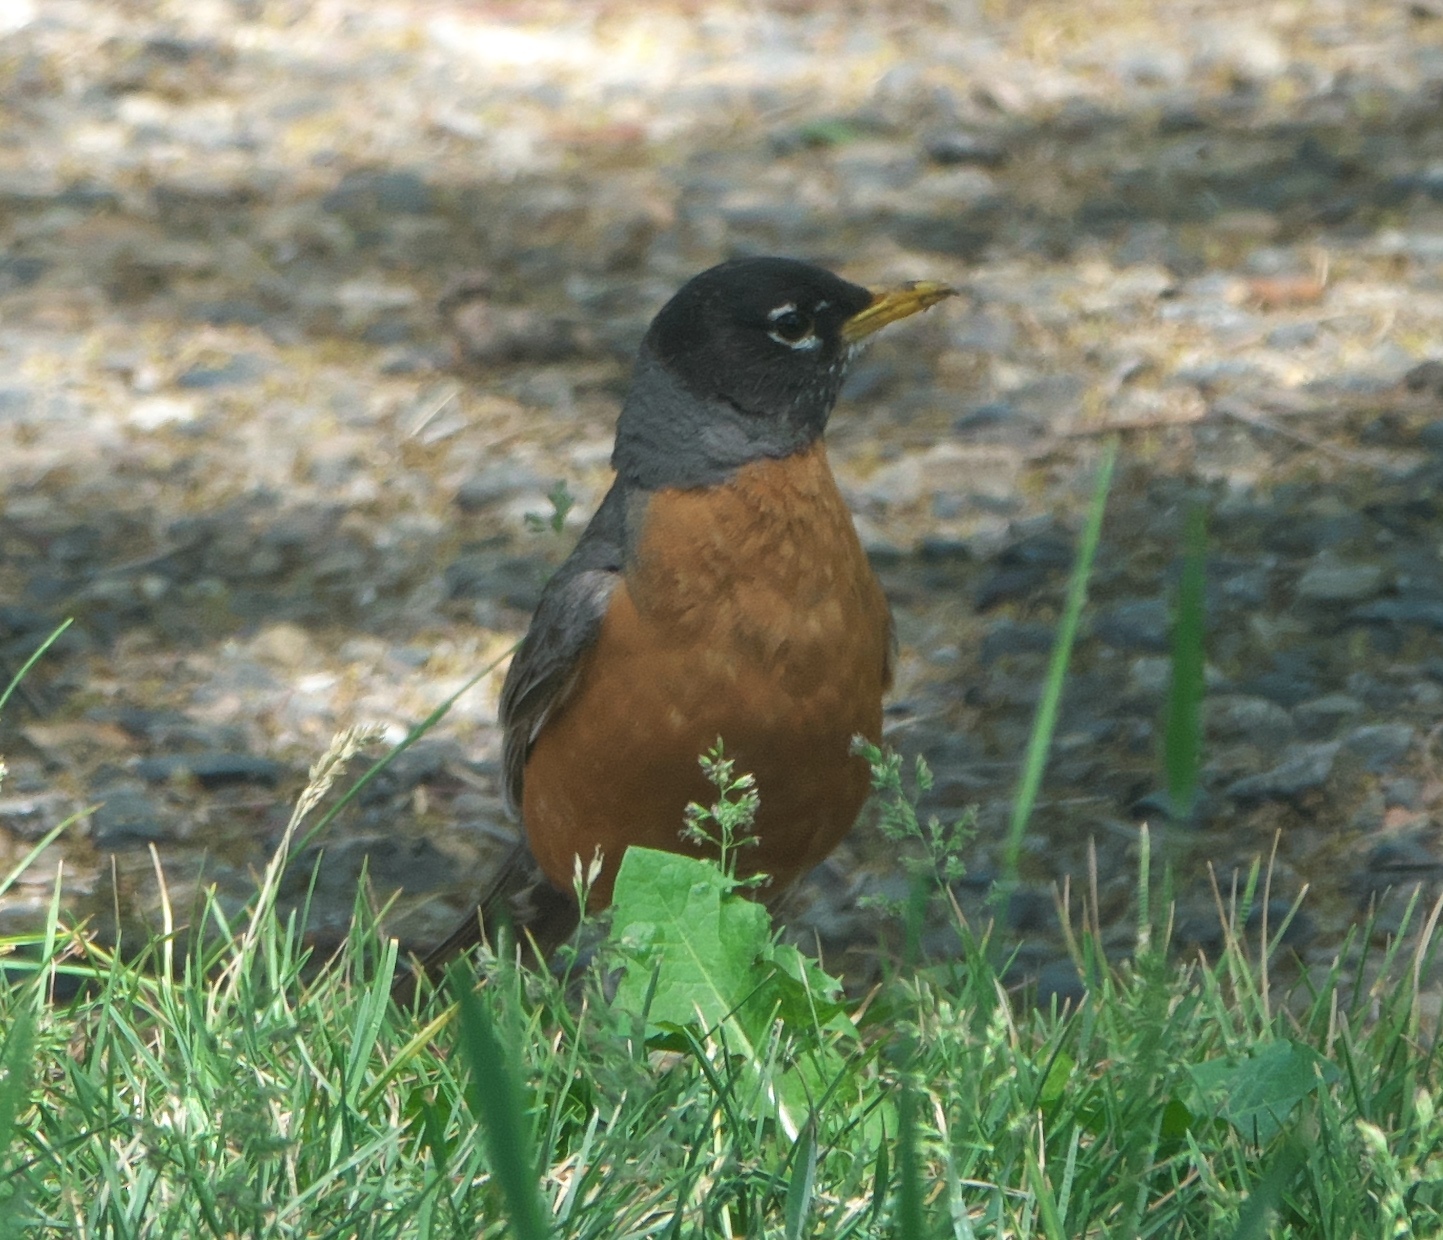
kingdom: Animalia
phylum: Chordata
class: Aves
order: Passeriformes
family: Turdidae
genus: Turdus
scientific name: Turdus migratorius
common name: American robin
